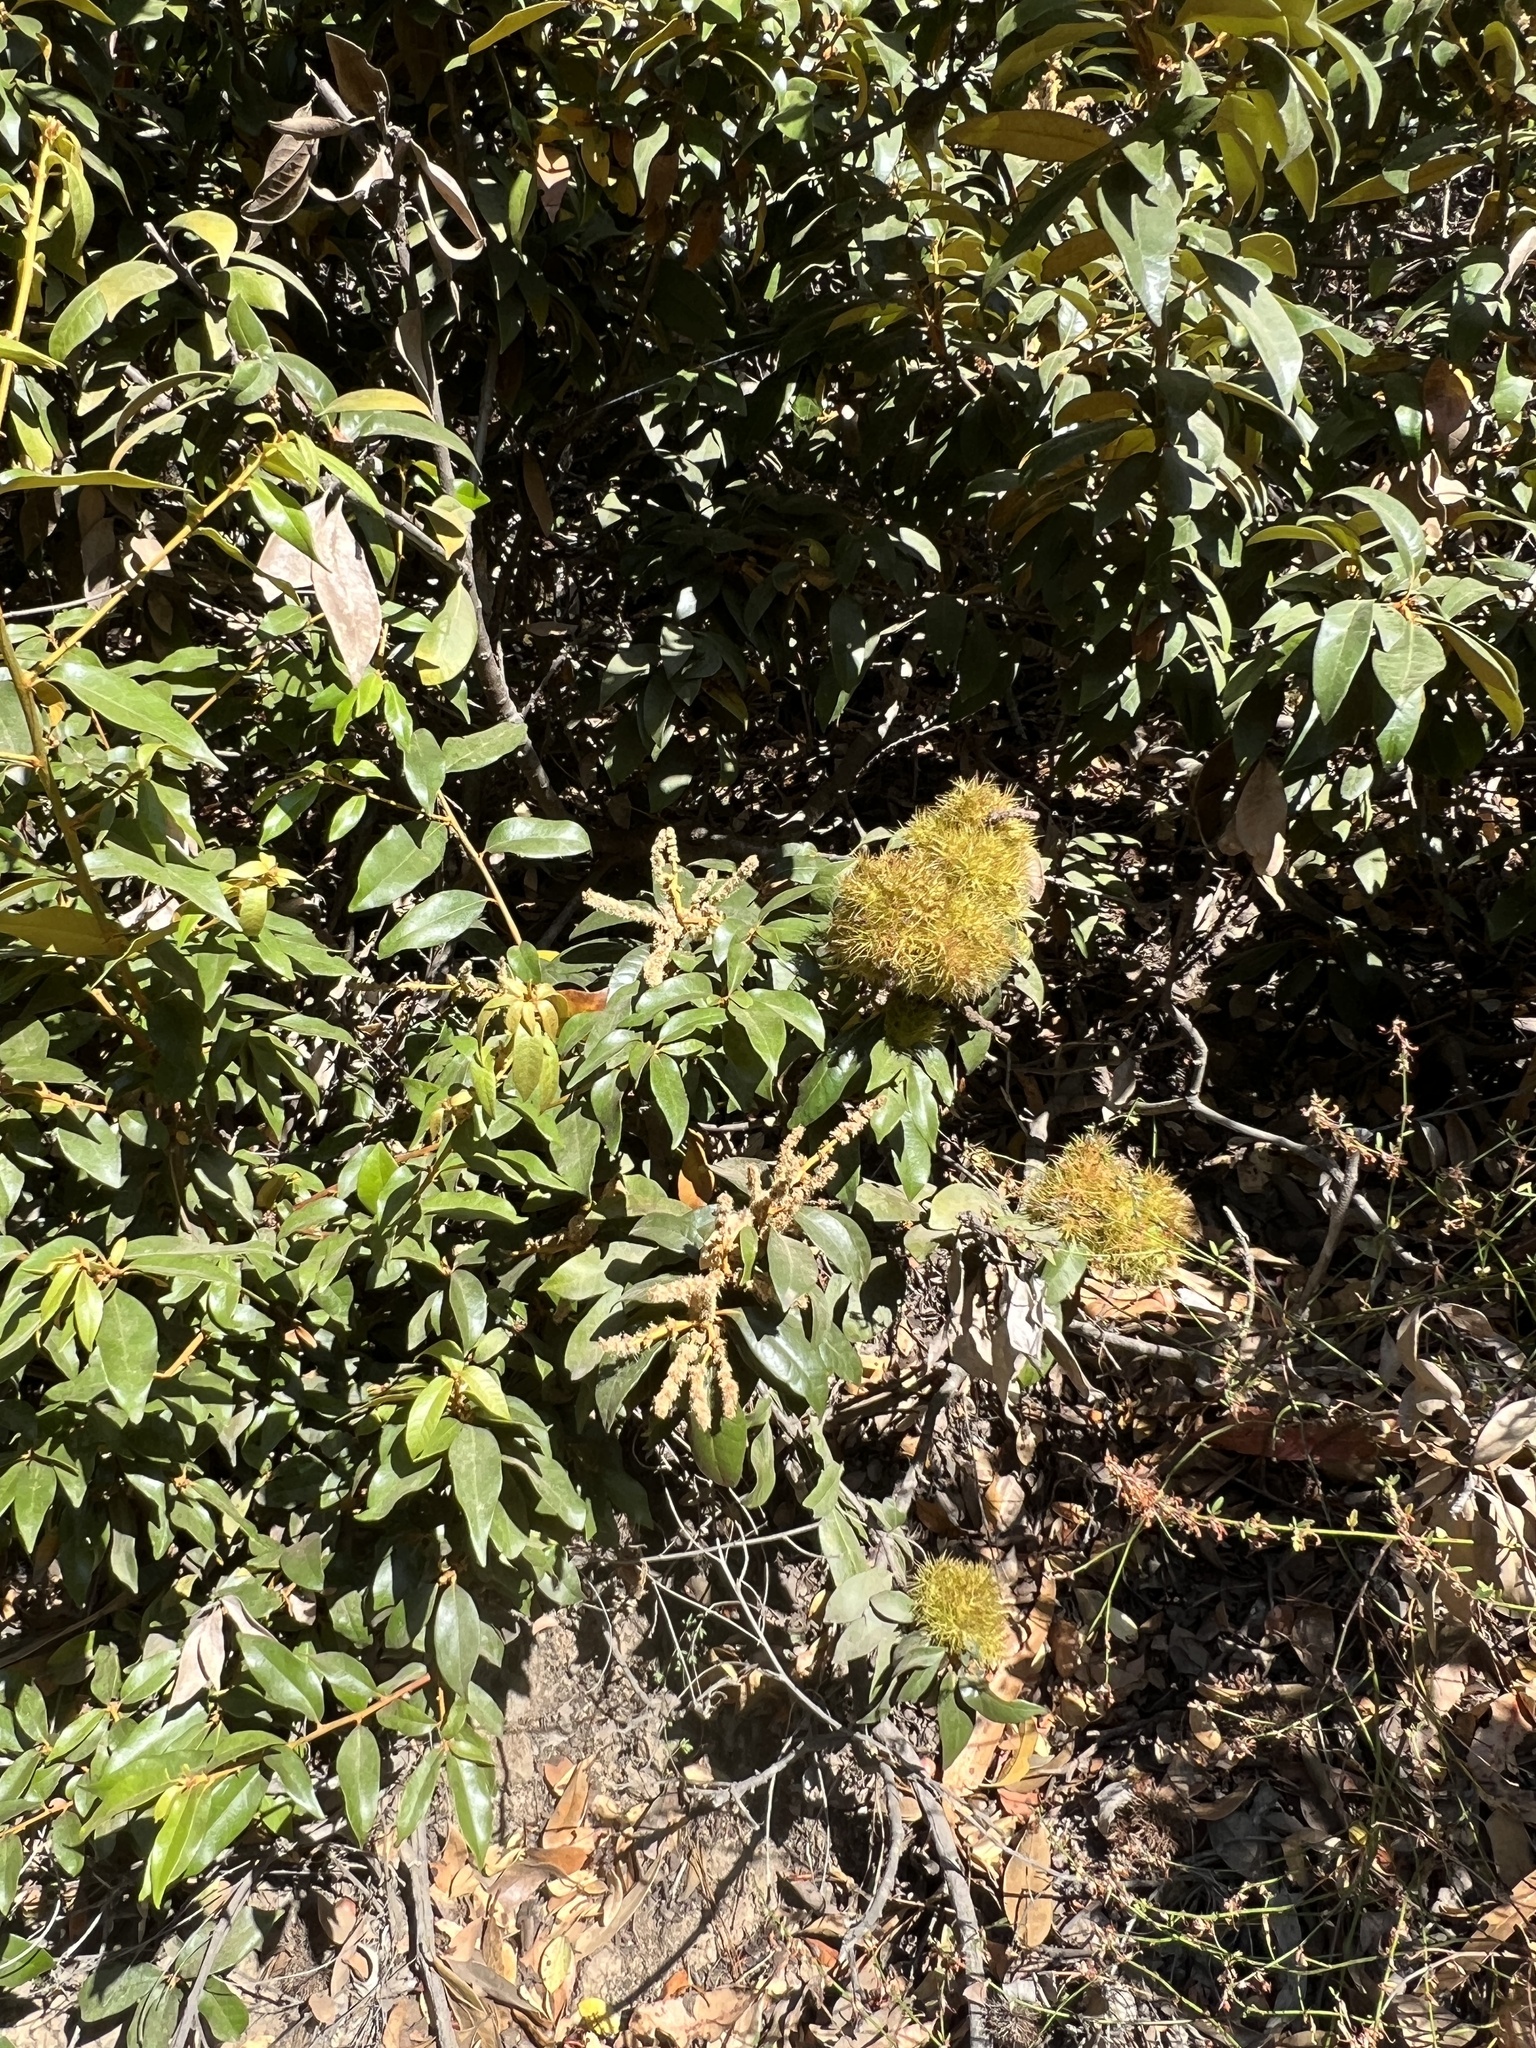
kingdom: Plantae
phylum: Tracheophyta
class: Magnoliopsida
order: Fagales
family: Fagaceae
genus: Chrysolepis
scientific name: Chrysolepis chrysophylla
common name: Giant chinquapin
